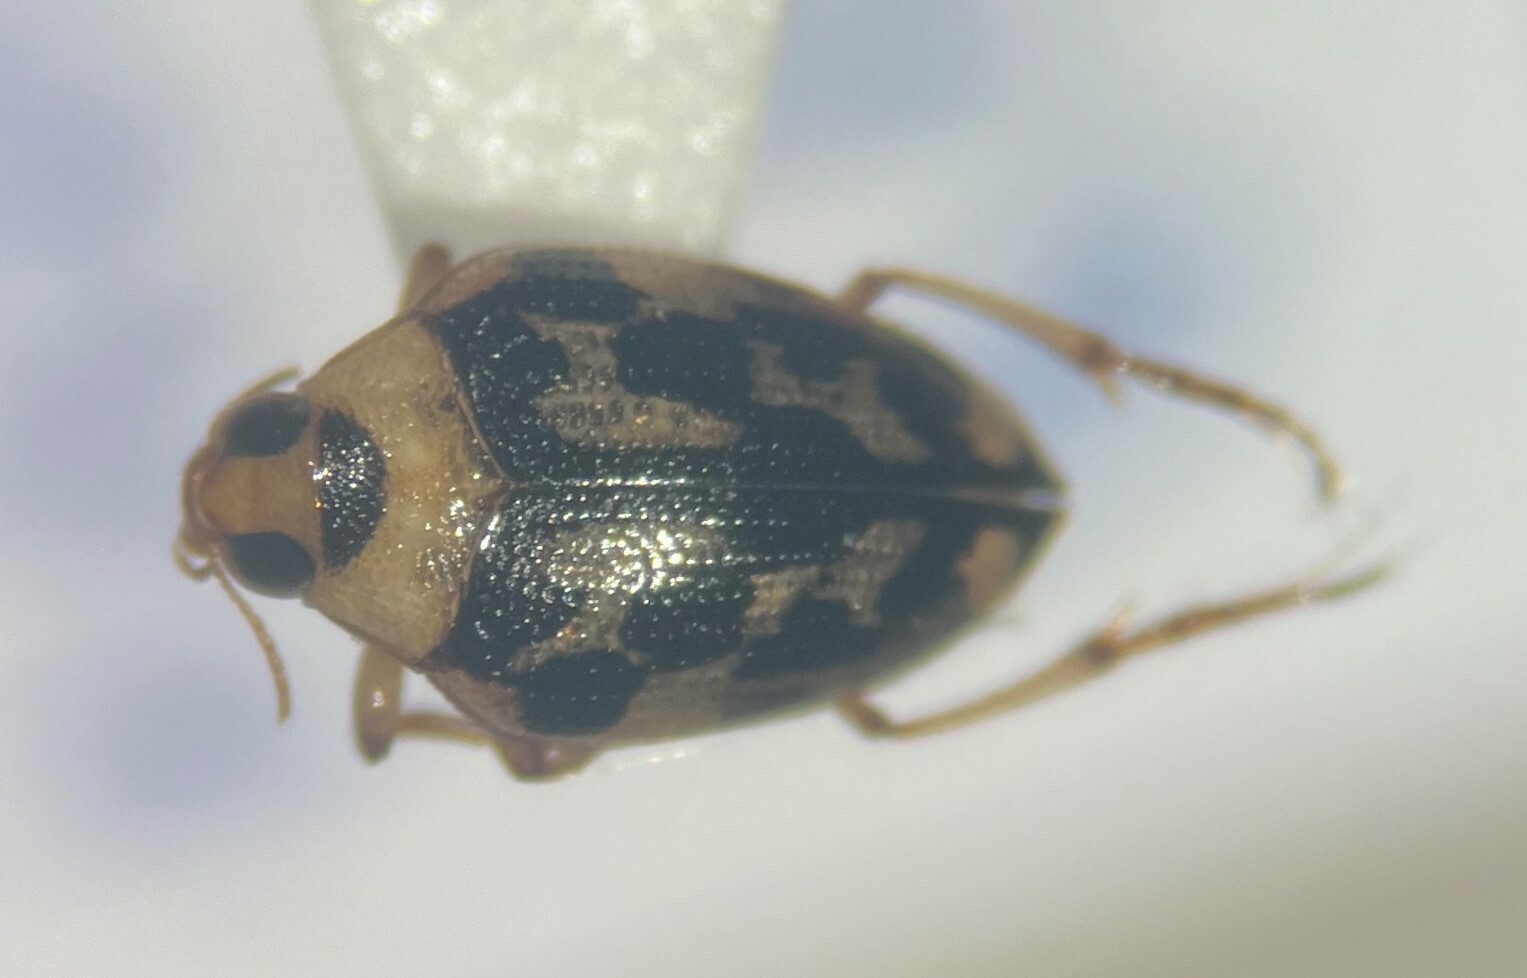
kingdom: Animalia
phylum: Arthropoda
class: Insecta
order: Coleoptera
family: Haliplidae
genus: Haliplus
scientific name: Haliplus triopsis
